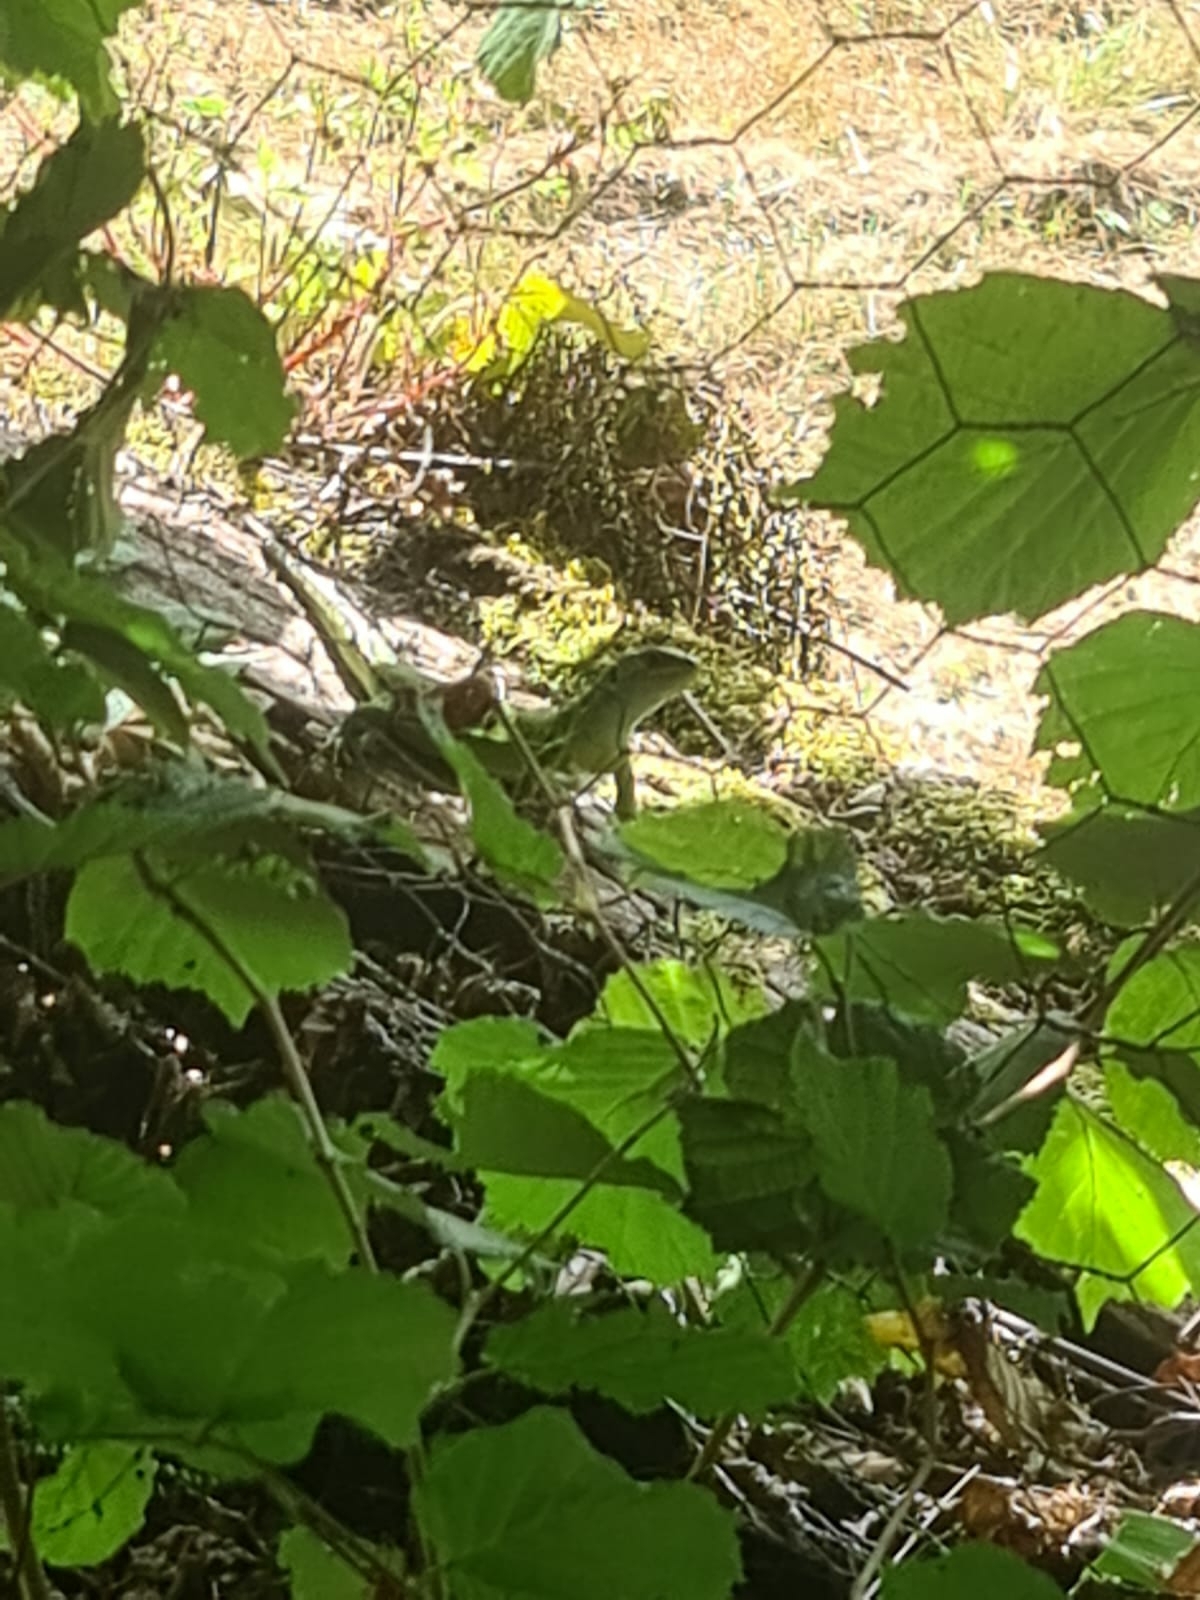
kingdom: Animalia
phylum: Chordata
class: Squamata
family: Lacertidae
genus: Lacerta
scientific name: Lacerta bilineata
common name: Western green lizard
